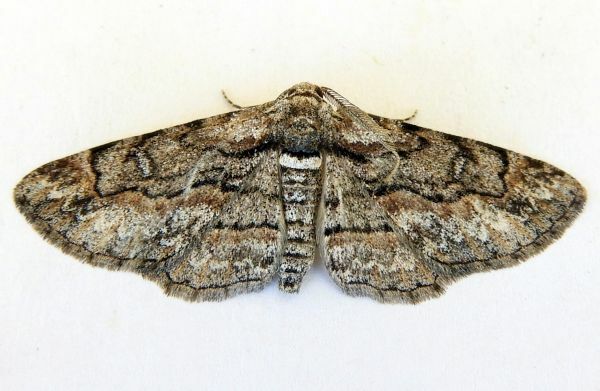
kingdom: Animalia
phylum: Arthropoda
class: Insecta
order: Lepidoptera
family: Geometridae
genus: Iridopsis
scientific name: Iridopsis dataria
